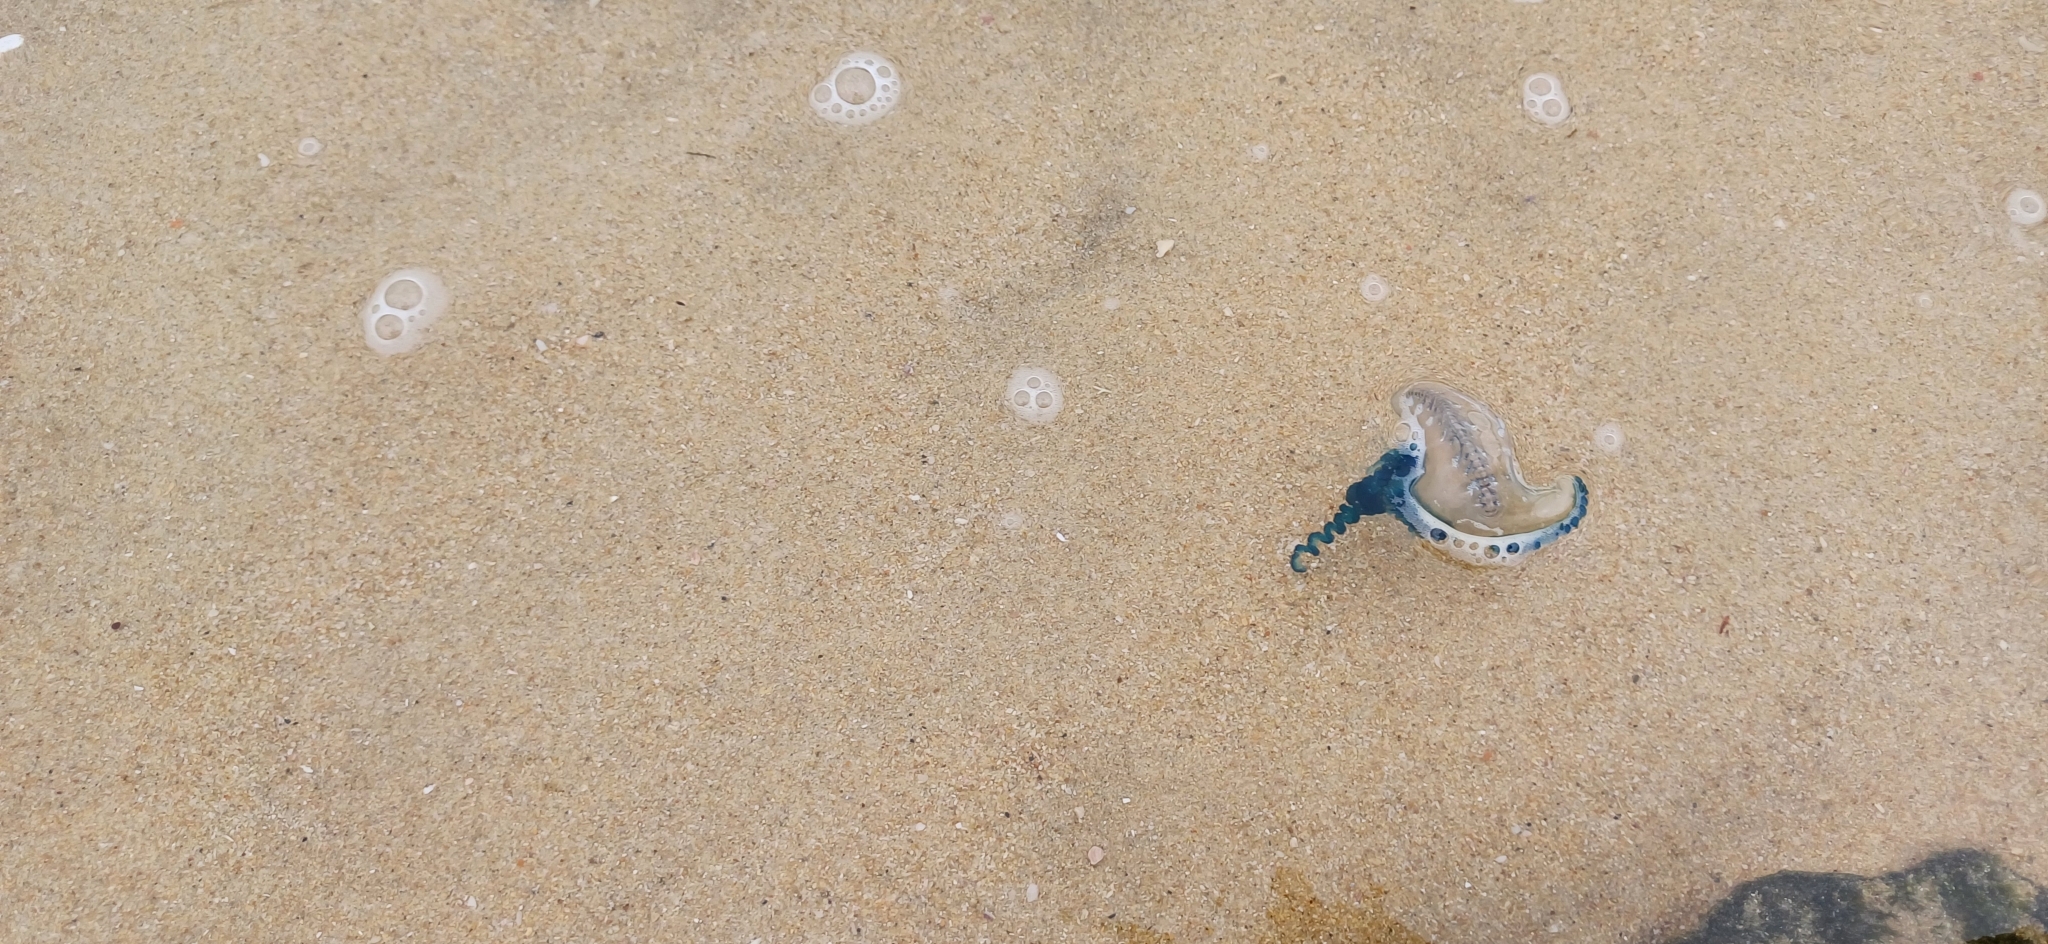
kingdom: Animalia
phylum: Cnidaria
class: Hydrozoa
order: Siphonophorae
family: Physaliidae
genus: Physalia
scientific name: Physalia physalis
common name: Portuguese man-of-war
